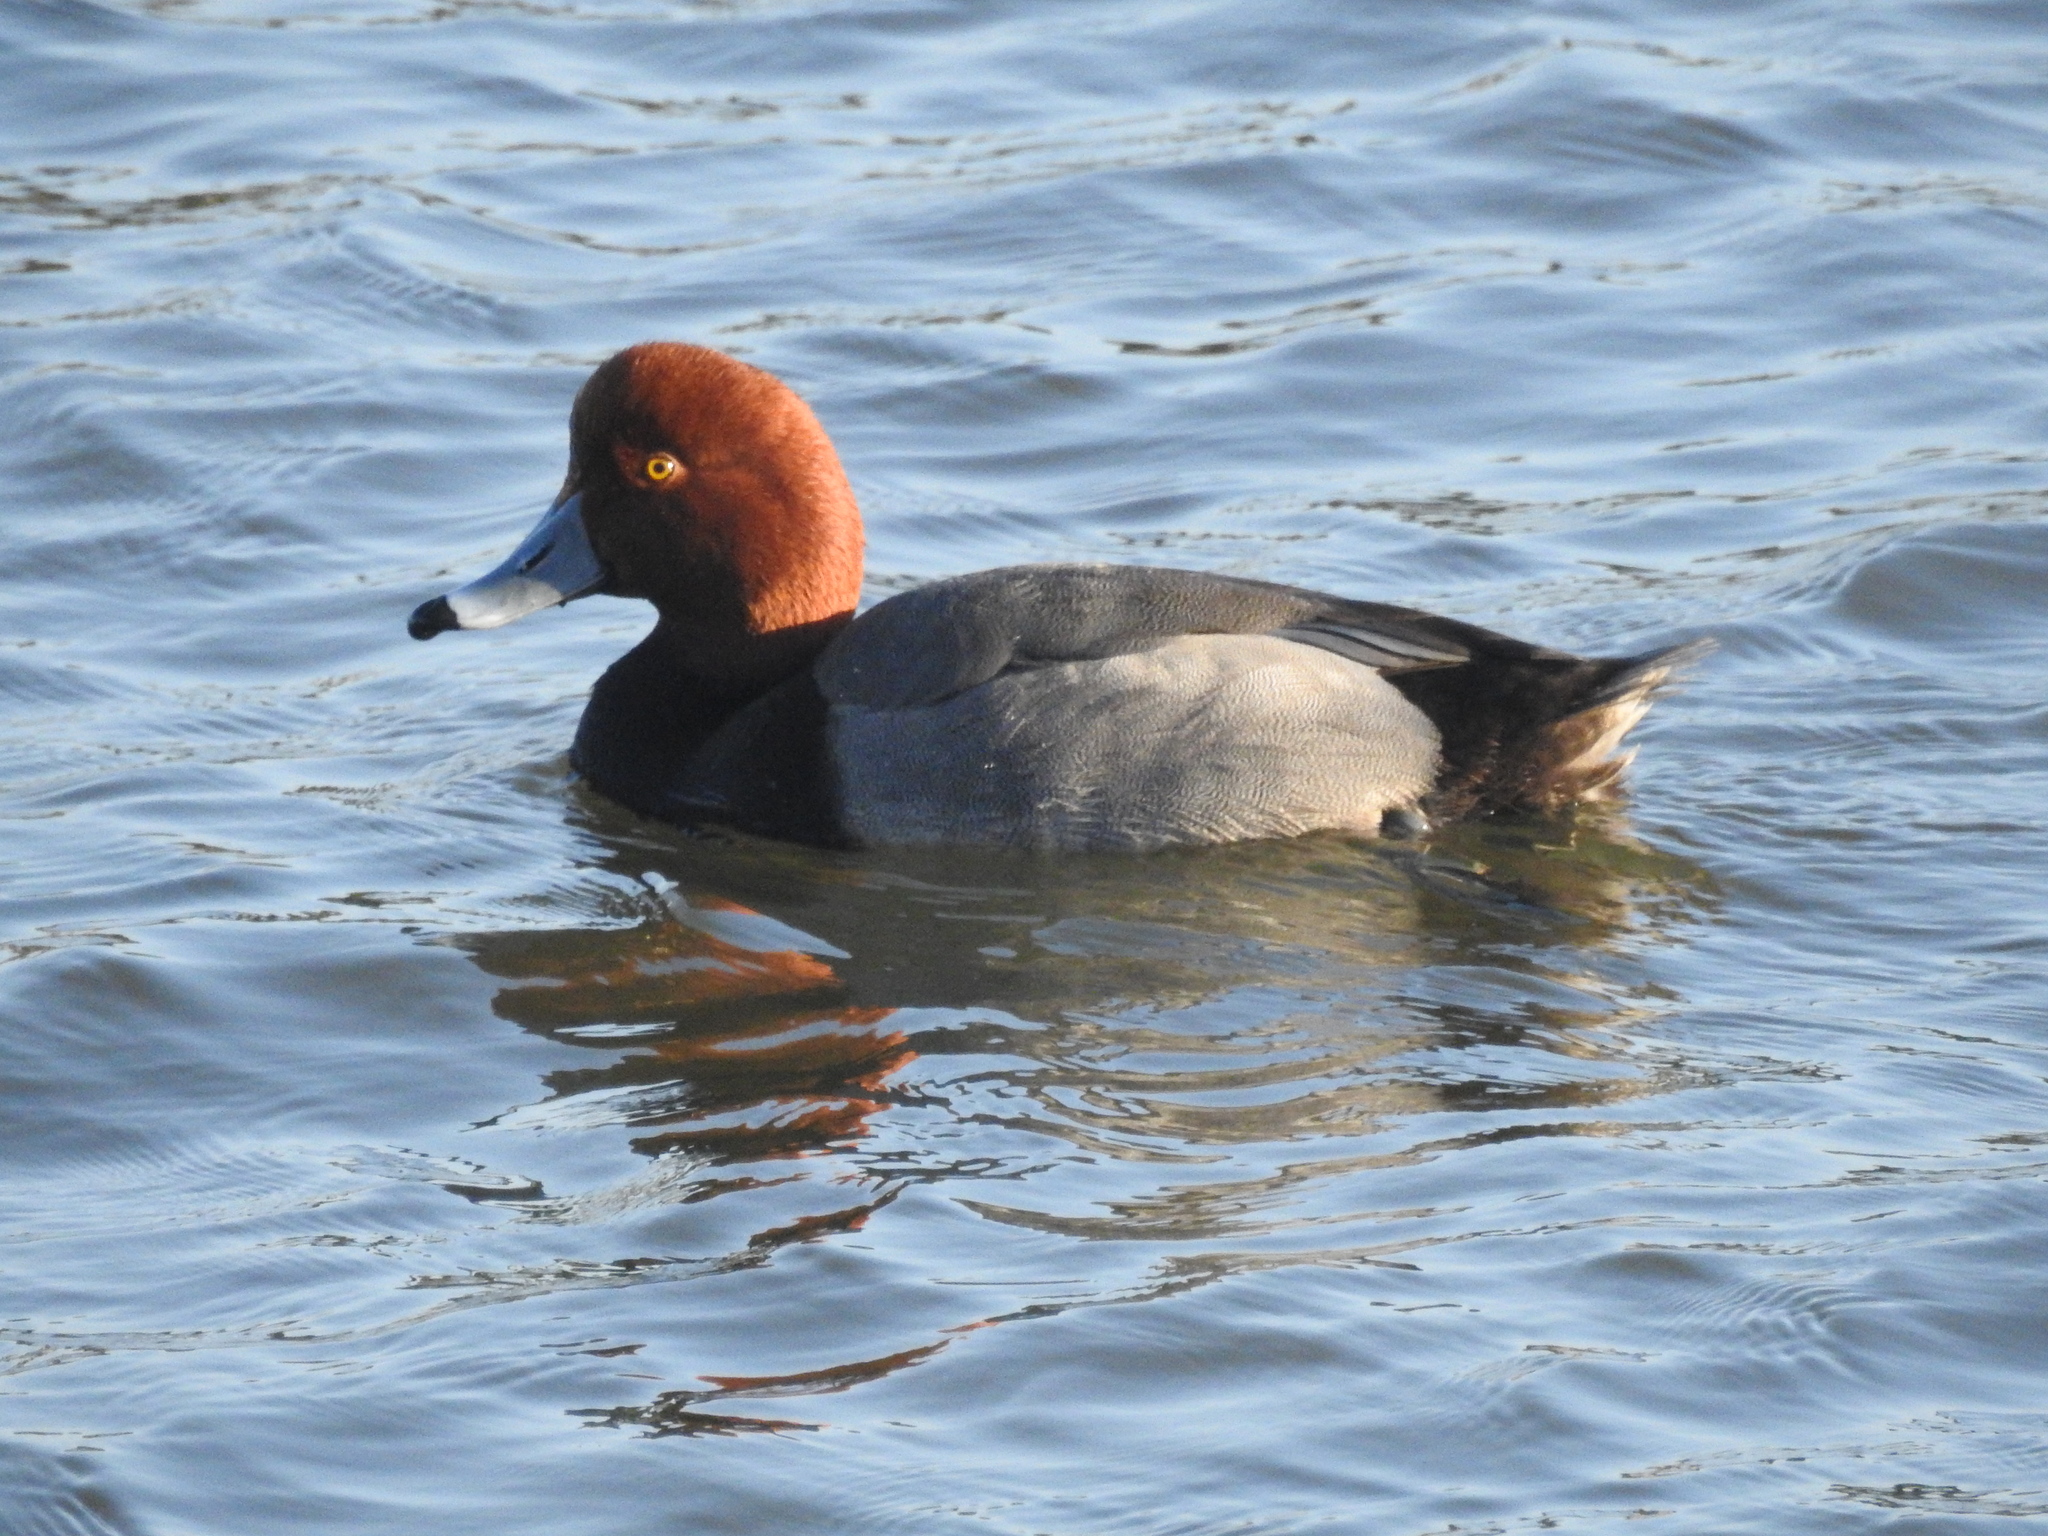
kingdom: Animalia
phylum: Chordata
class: Aves
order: Anseriformes
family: Anatidae
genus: Aythya
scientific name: Aythya americana
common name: Redhead
